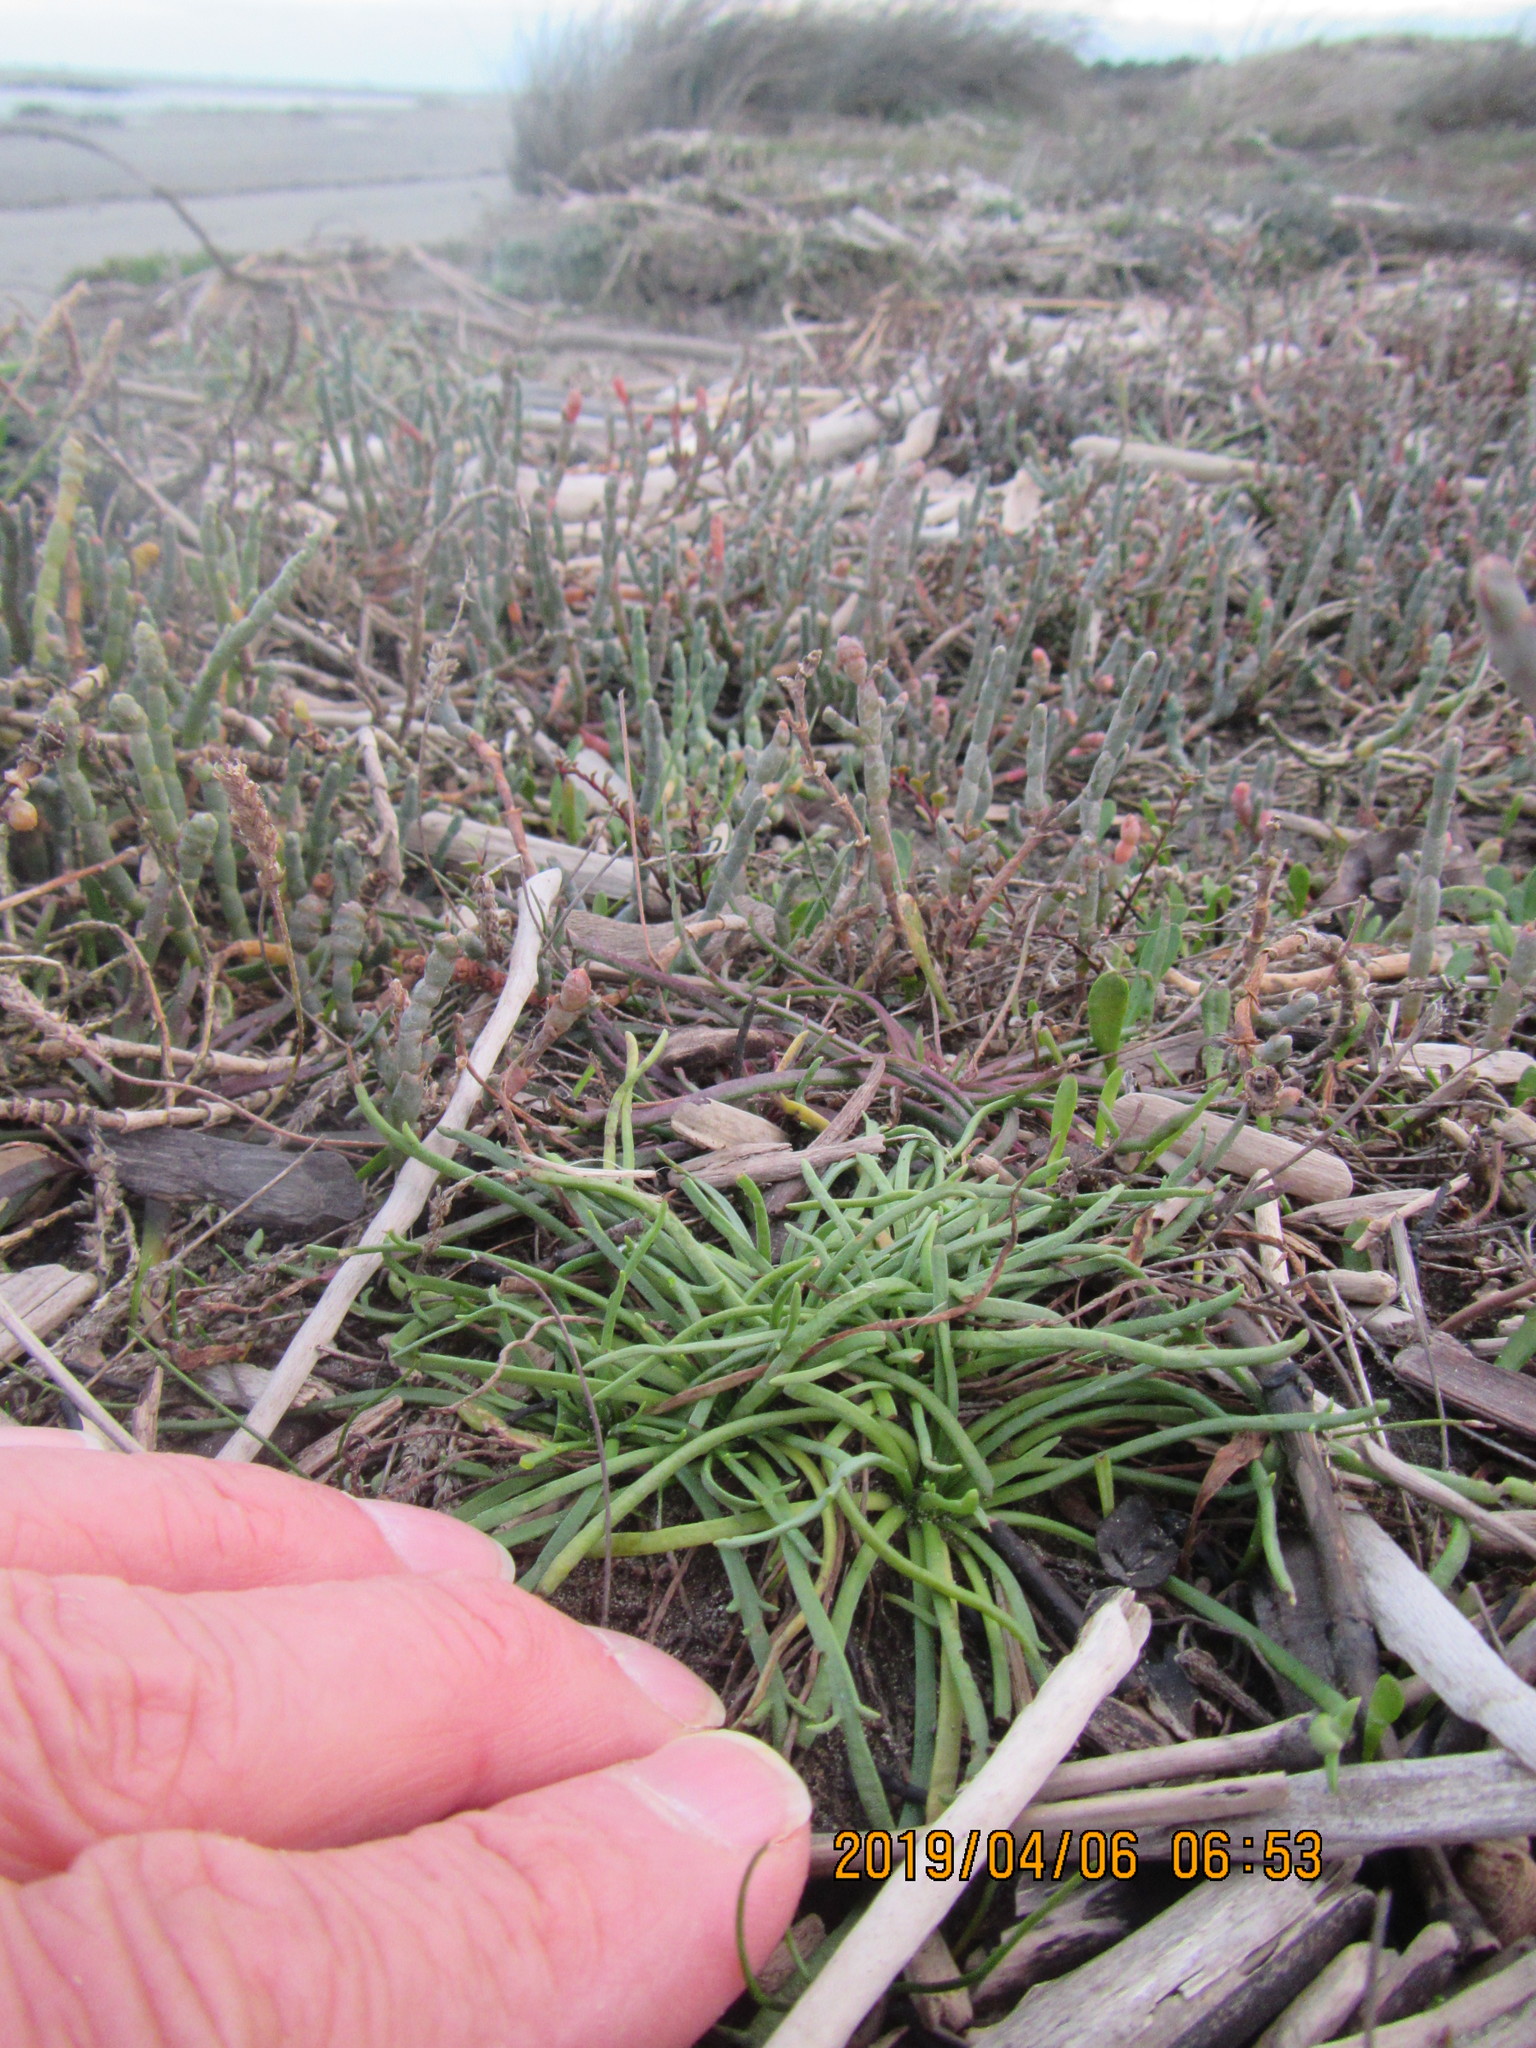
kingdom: Plantae
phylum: Tracheophyta
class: Magnoliopsida
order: Lamiales
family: Plantaginaceae
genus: Plantago
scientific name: Plantago coronopus
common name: Buck's-horn plantain
